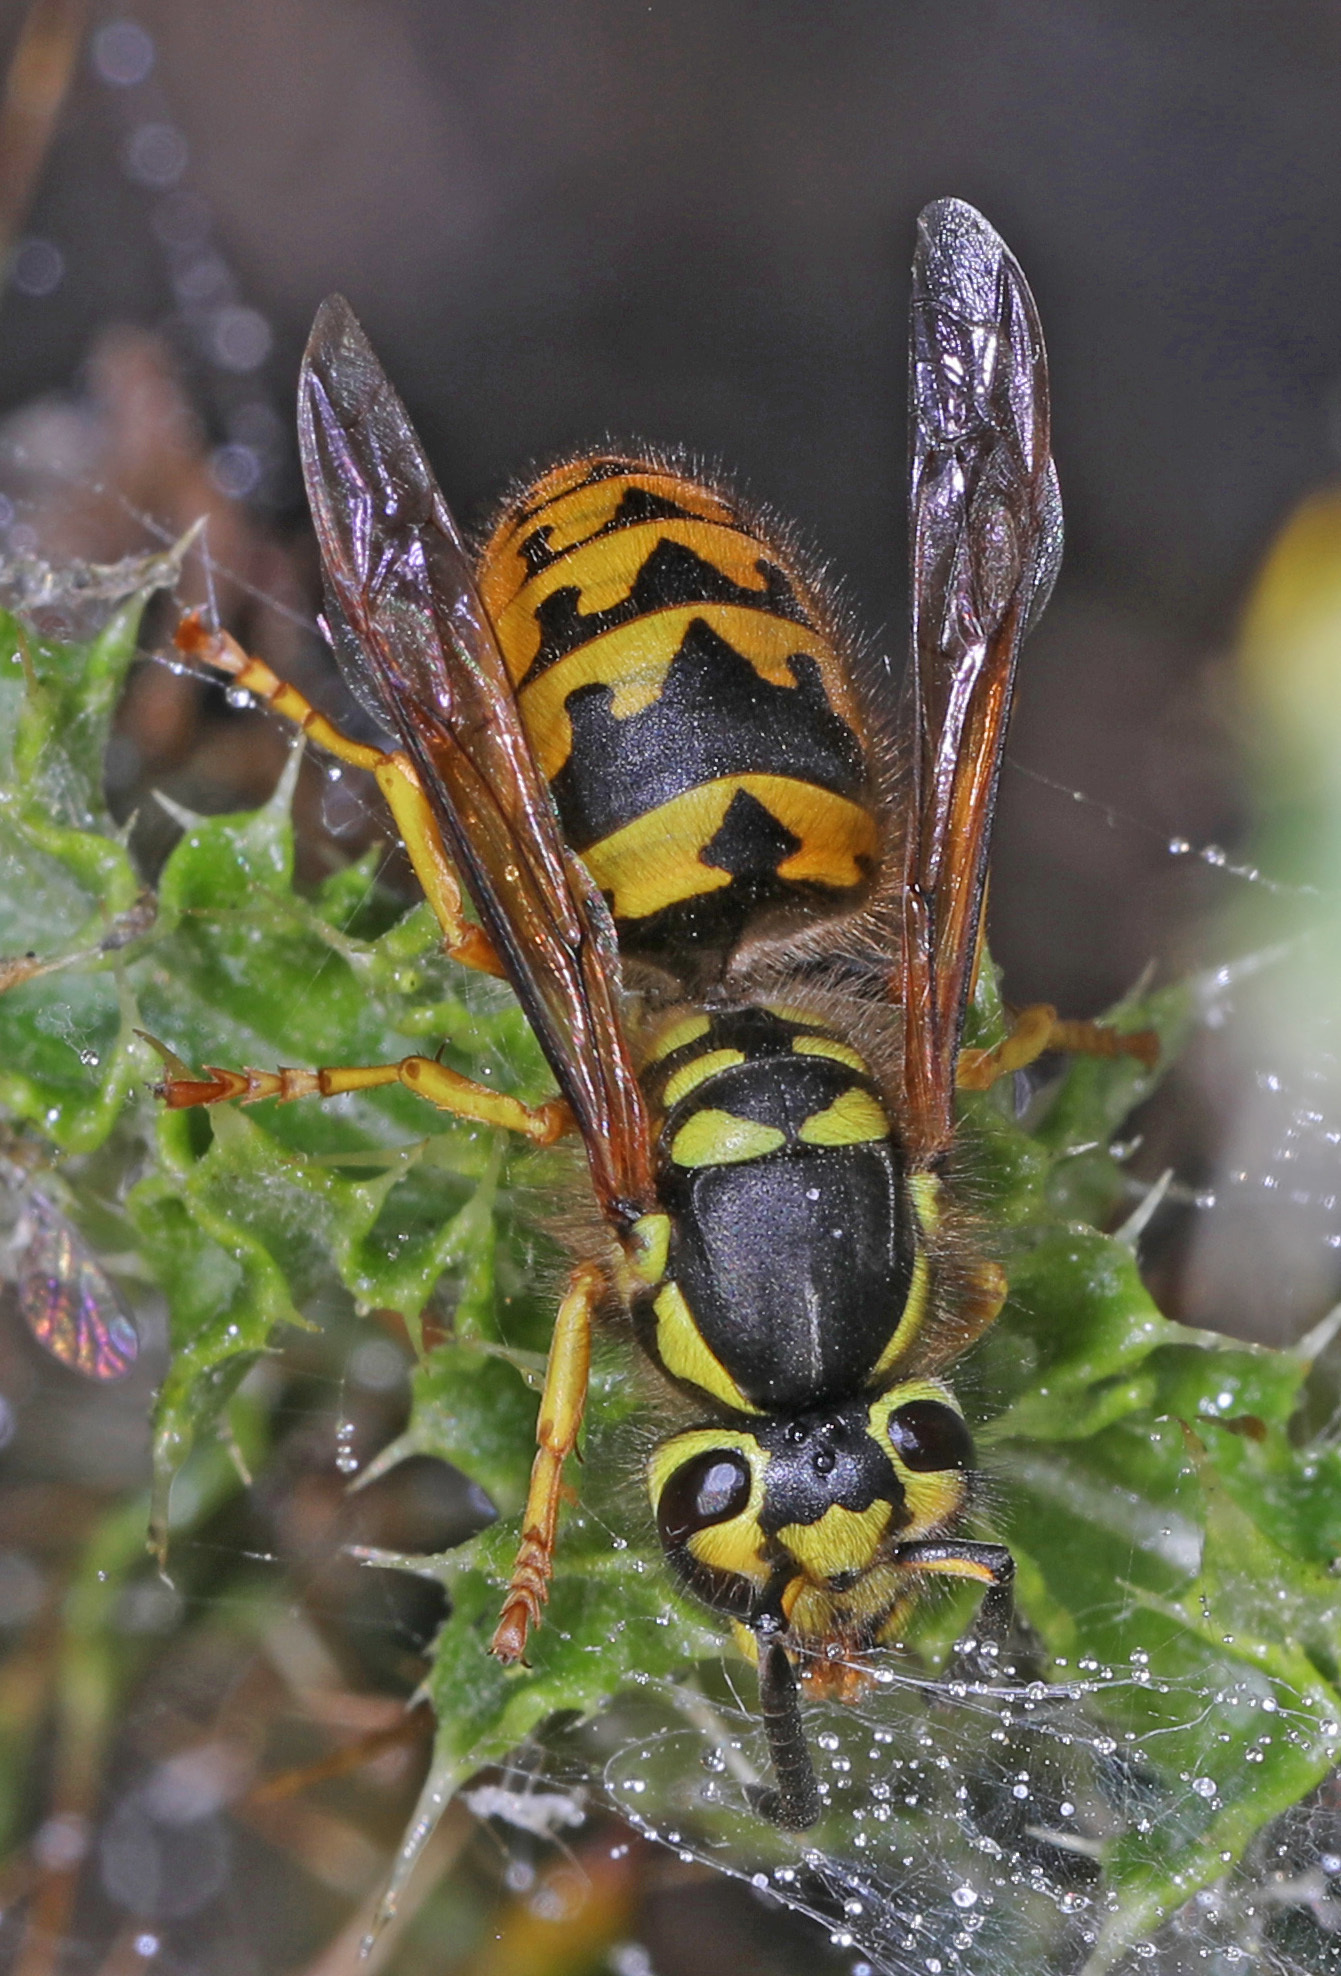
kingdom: Animalia
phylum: Arthropoda
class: Insecta
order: Hymenoptera
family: Vespidae
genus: Vespula
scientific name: Vespula pensylvanica
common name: Western yellowjacket
